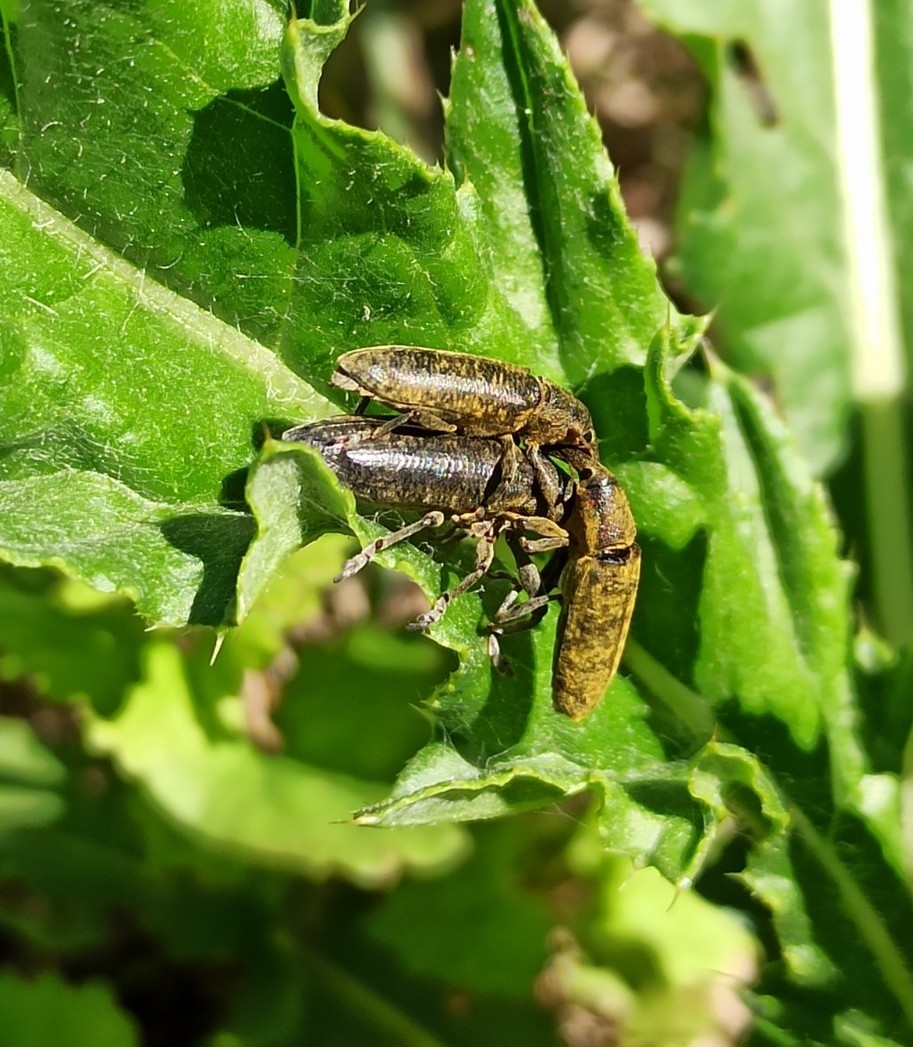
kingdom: Animalia
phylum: Arthropoda
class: Insecta
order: Coleoptera
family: Curculionidae
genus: Lixus
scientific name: Lixus pulverulentus
